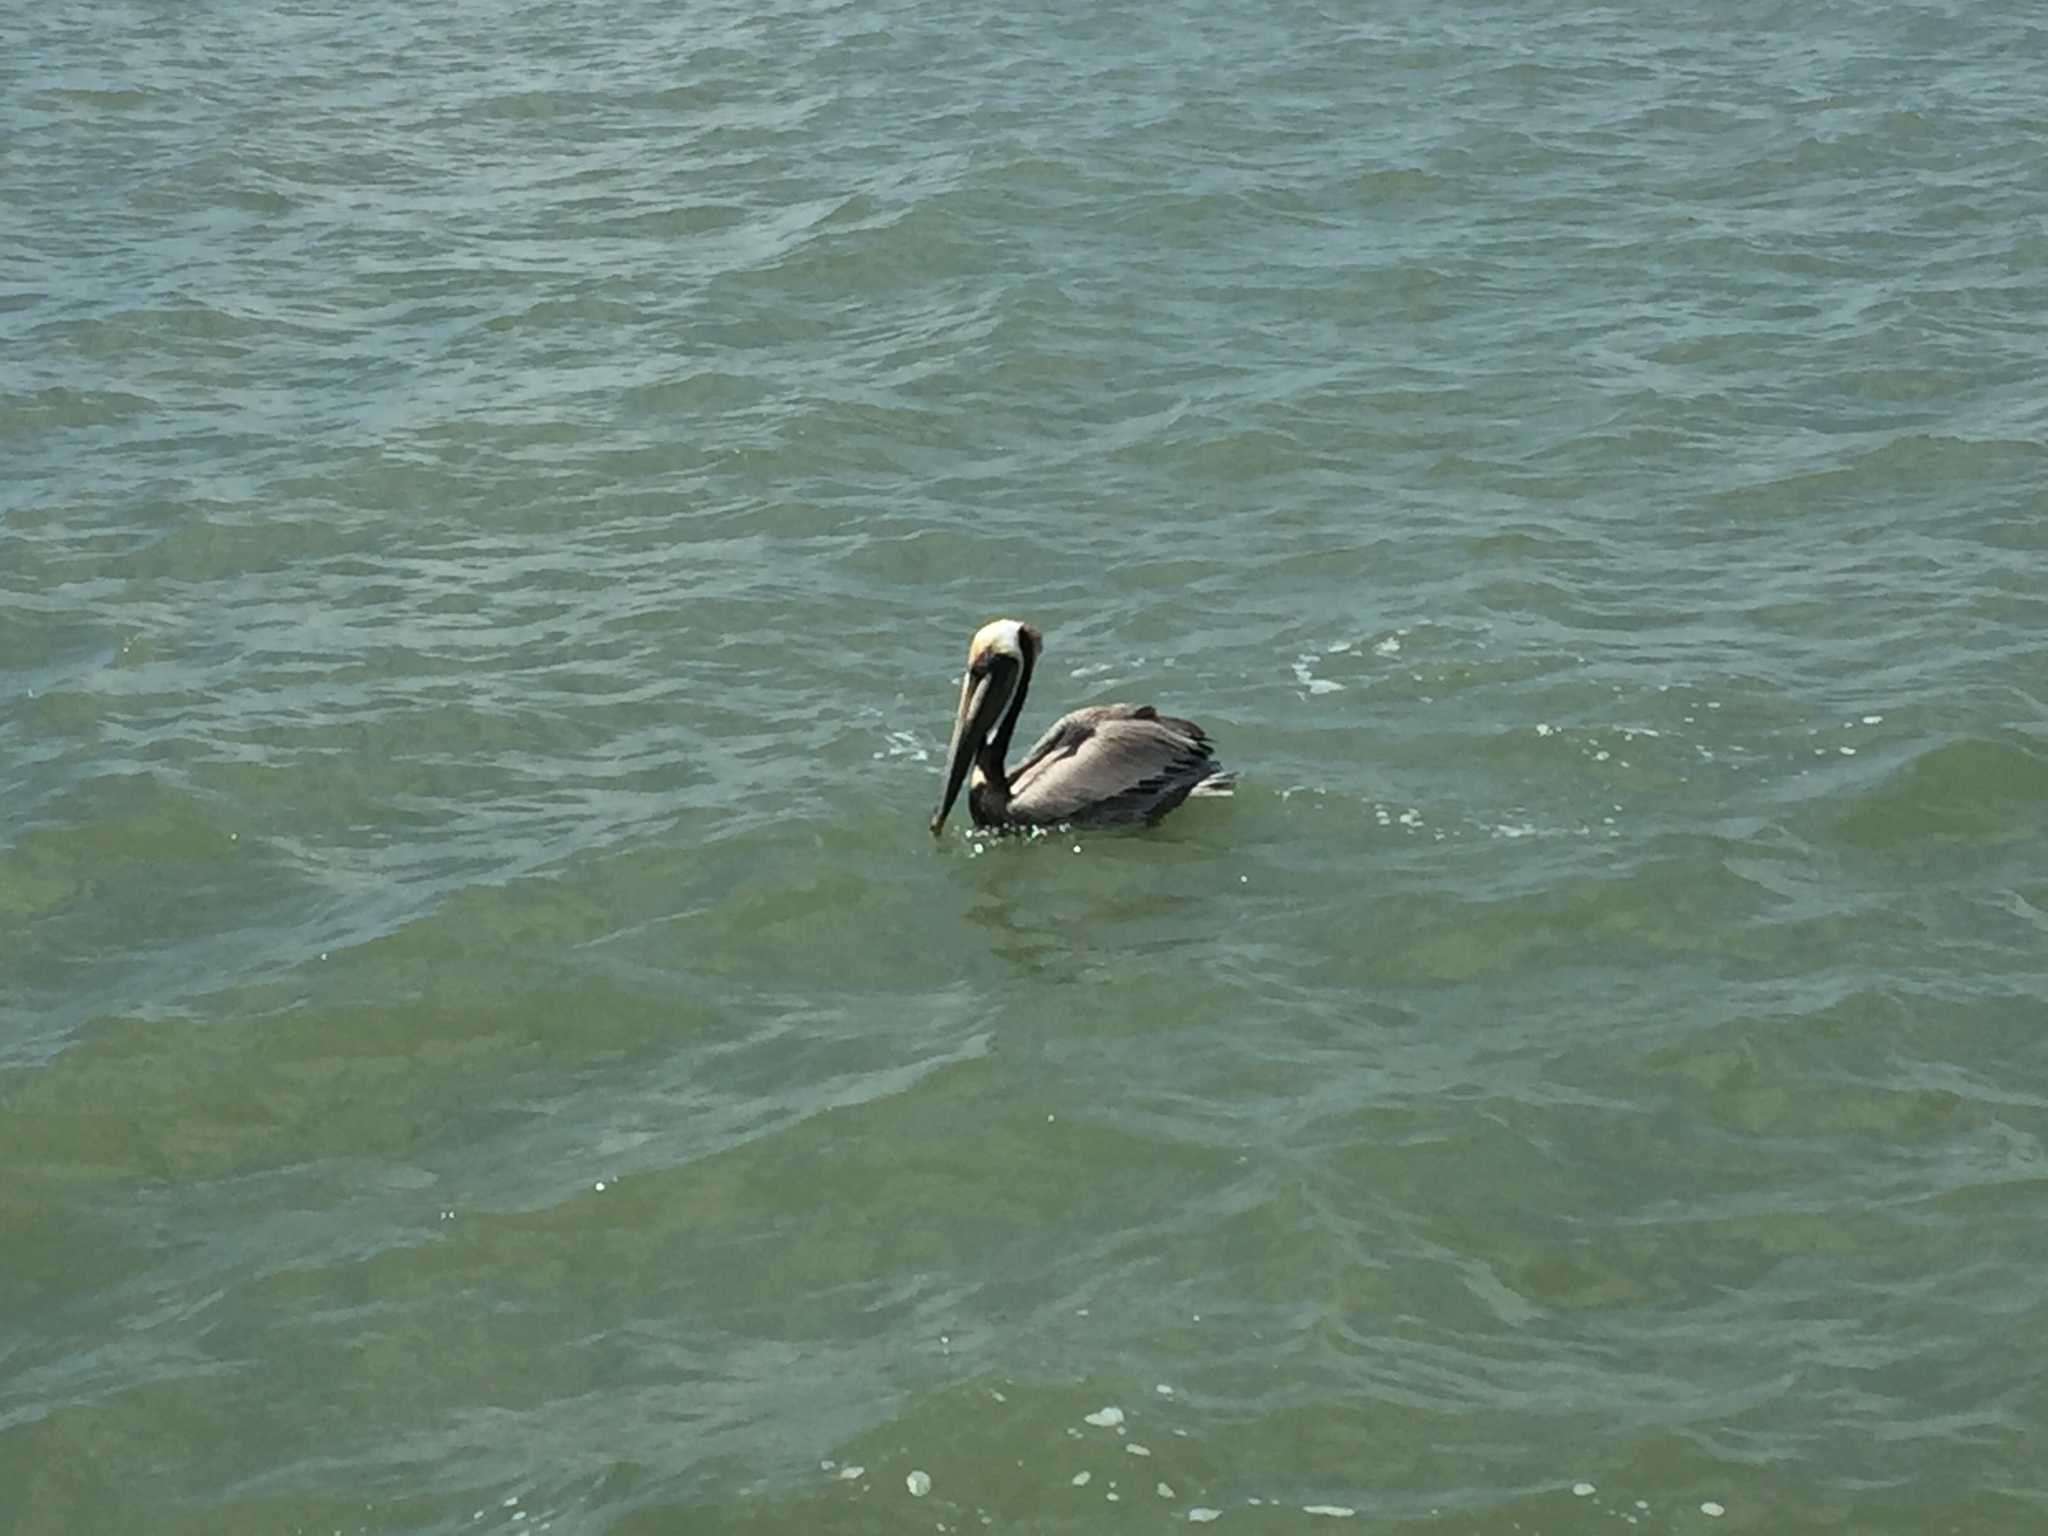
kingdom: Animalia
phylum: Chordata
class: Aves
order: Pelecaniformes
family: Pelecanidae
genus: Pelecanus
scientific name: Pelecanus occidentalis
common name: Brown pelican
